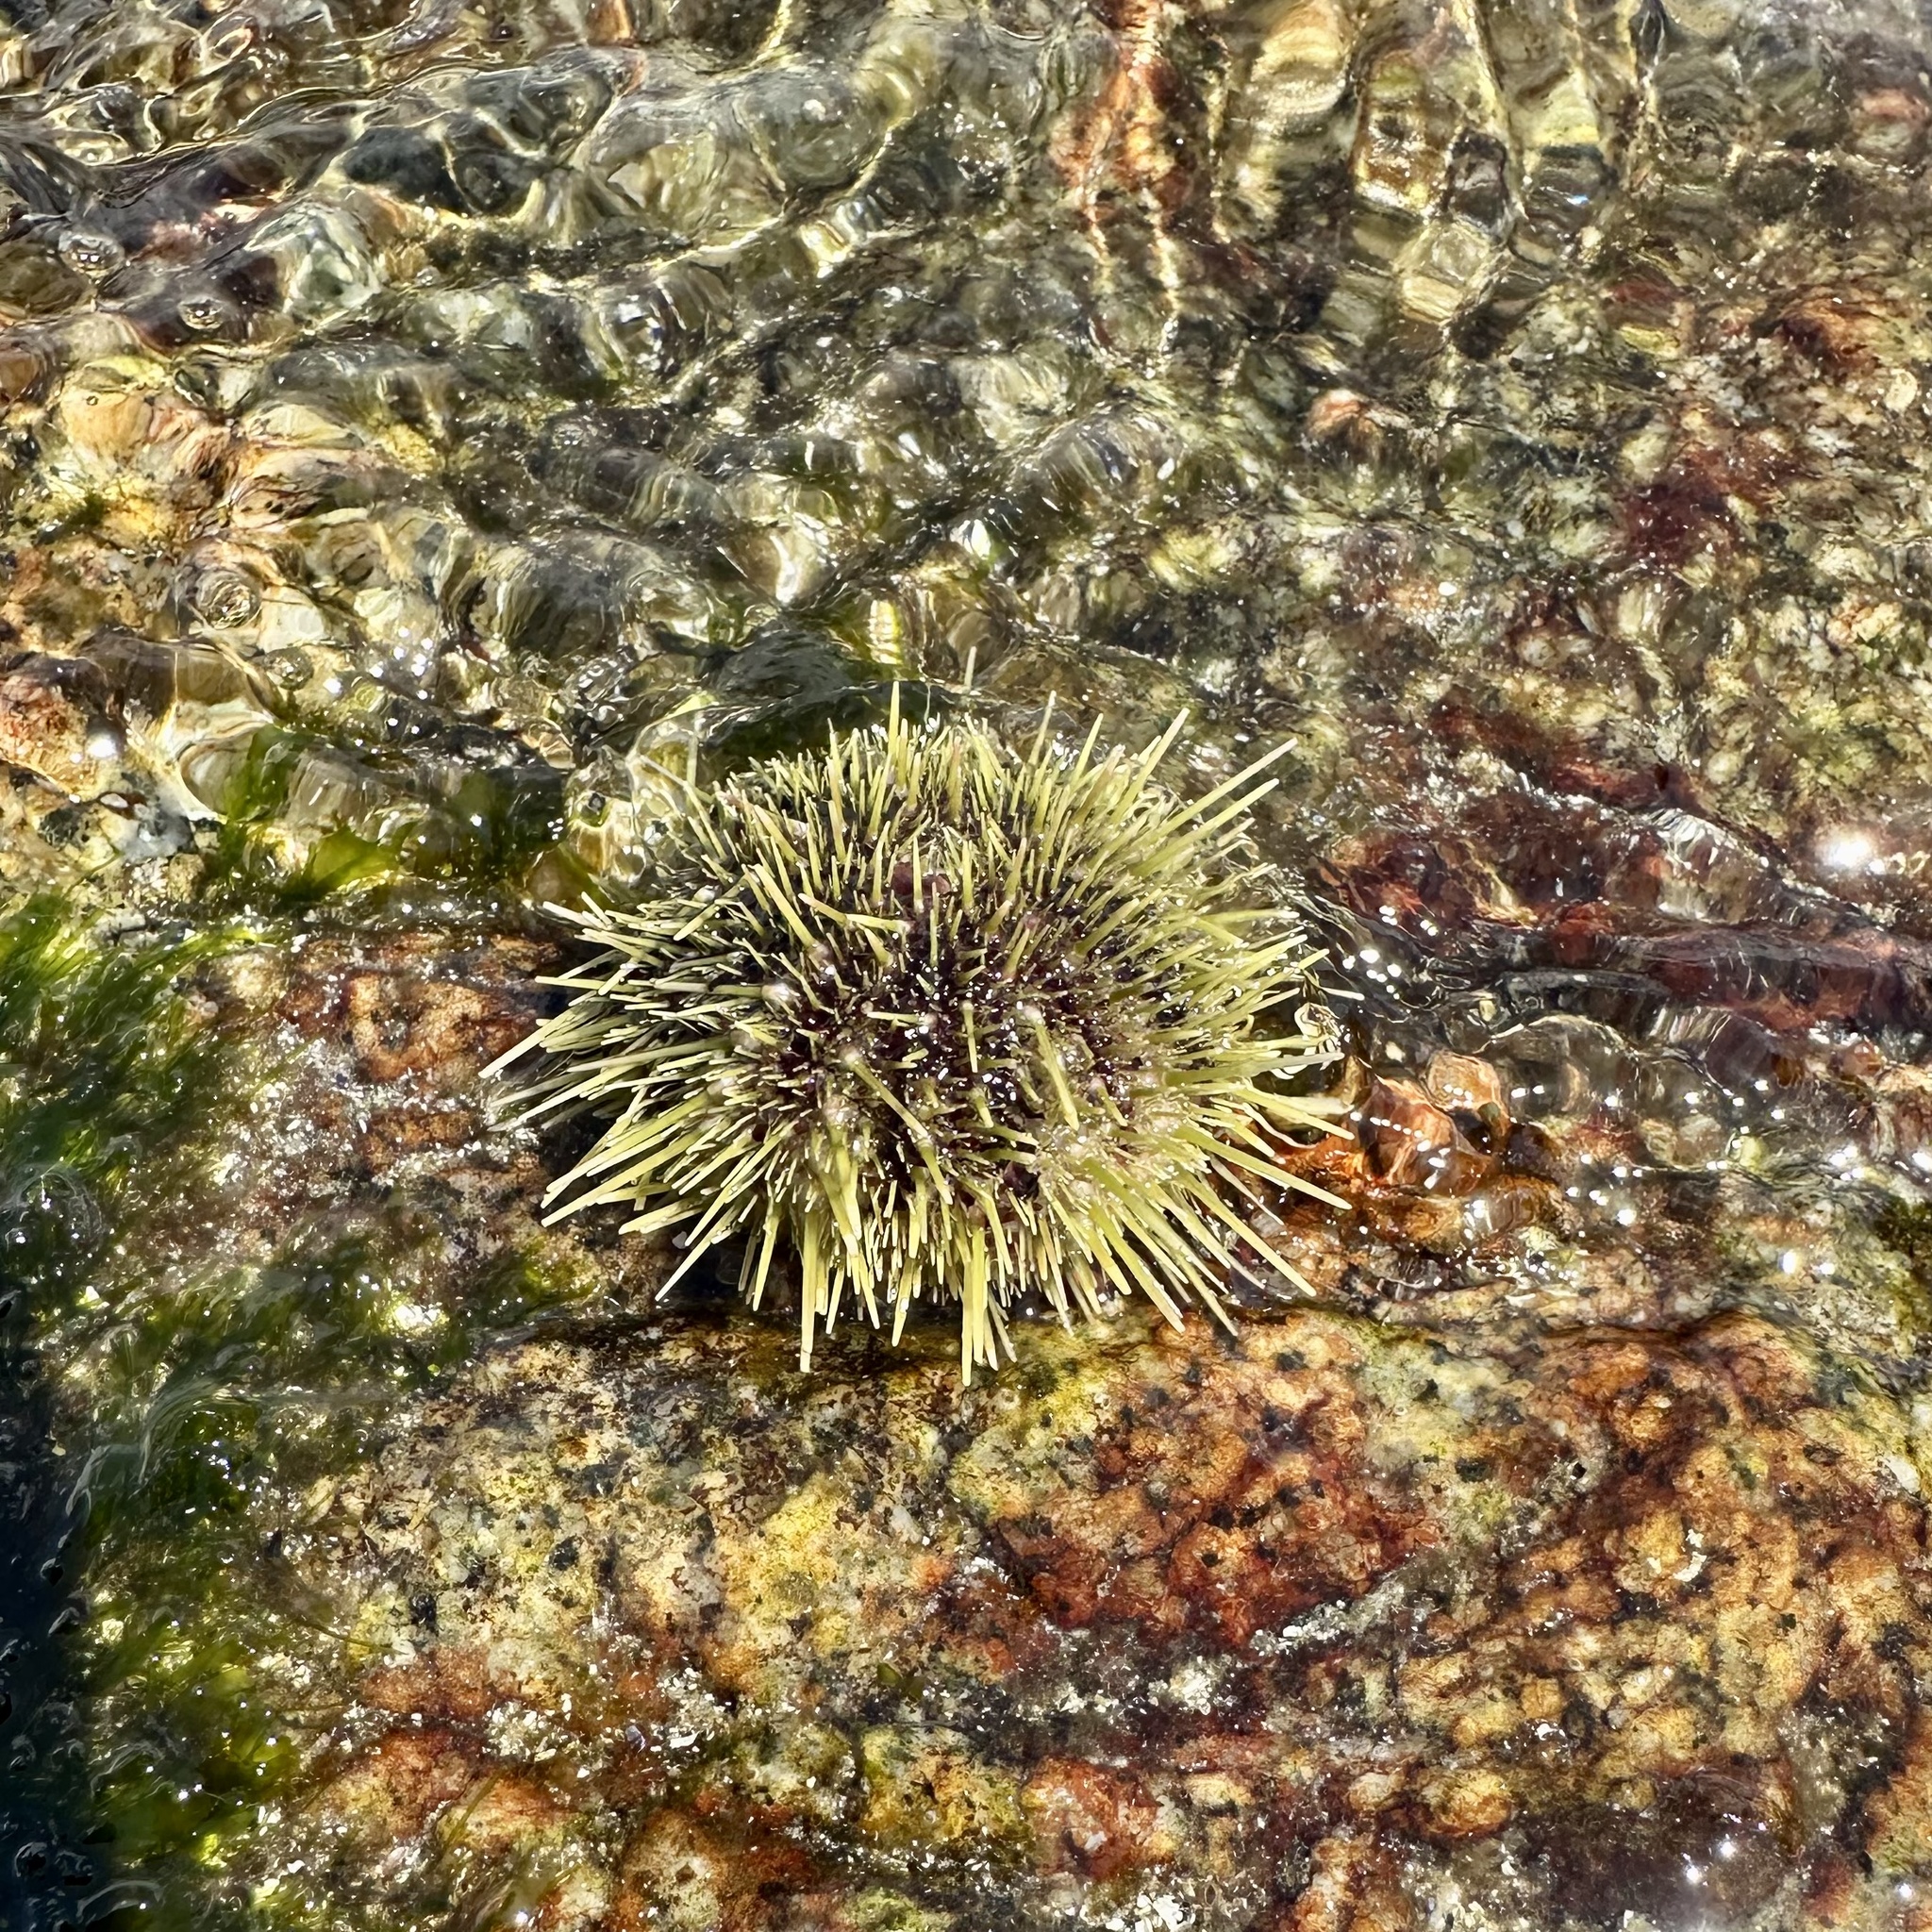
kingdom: Animalia
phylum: Echinodermata
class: Echinoidea
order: Camarodonta
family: Strongylocentrotidae
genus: Strongylocentrotus
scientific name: Strongylocentrotus droebachiensis
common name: Northern sea urchin
